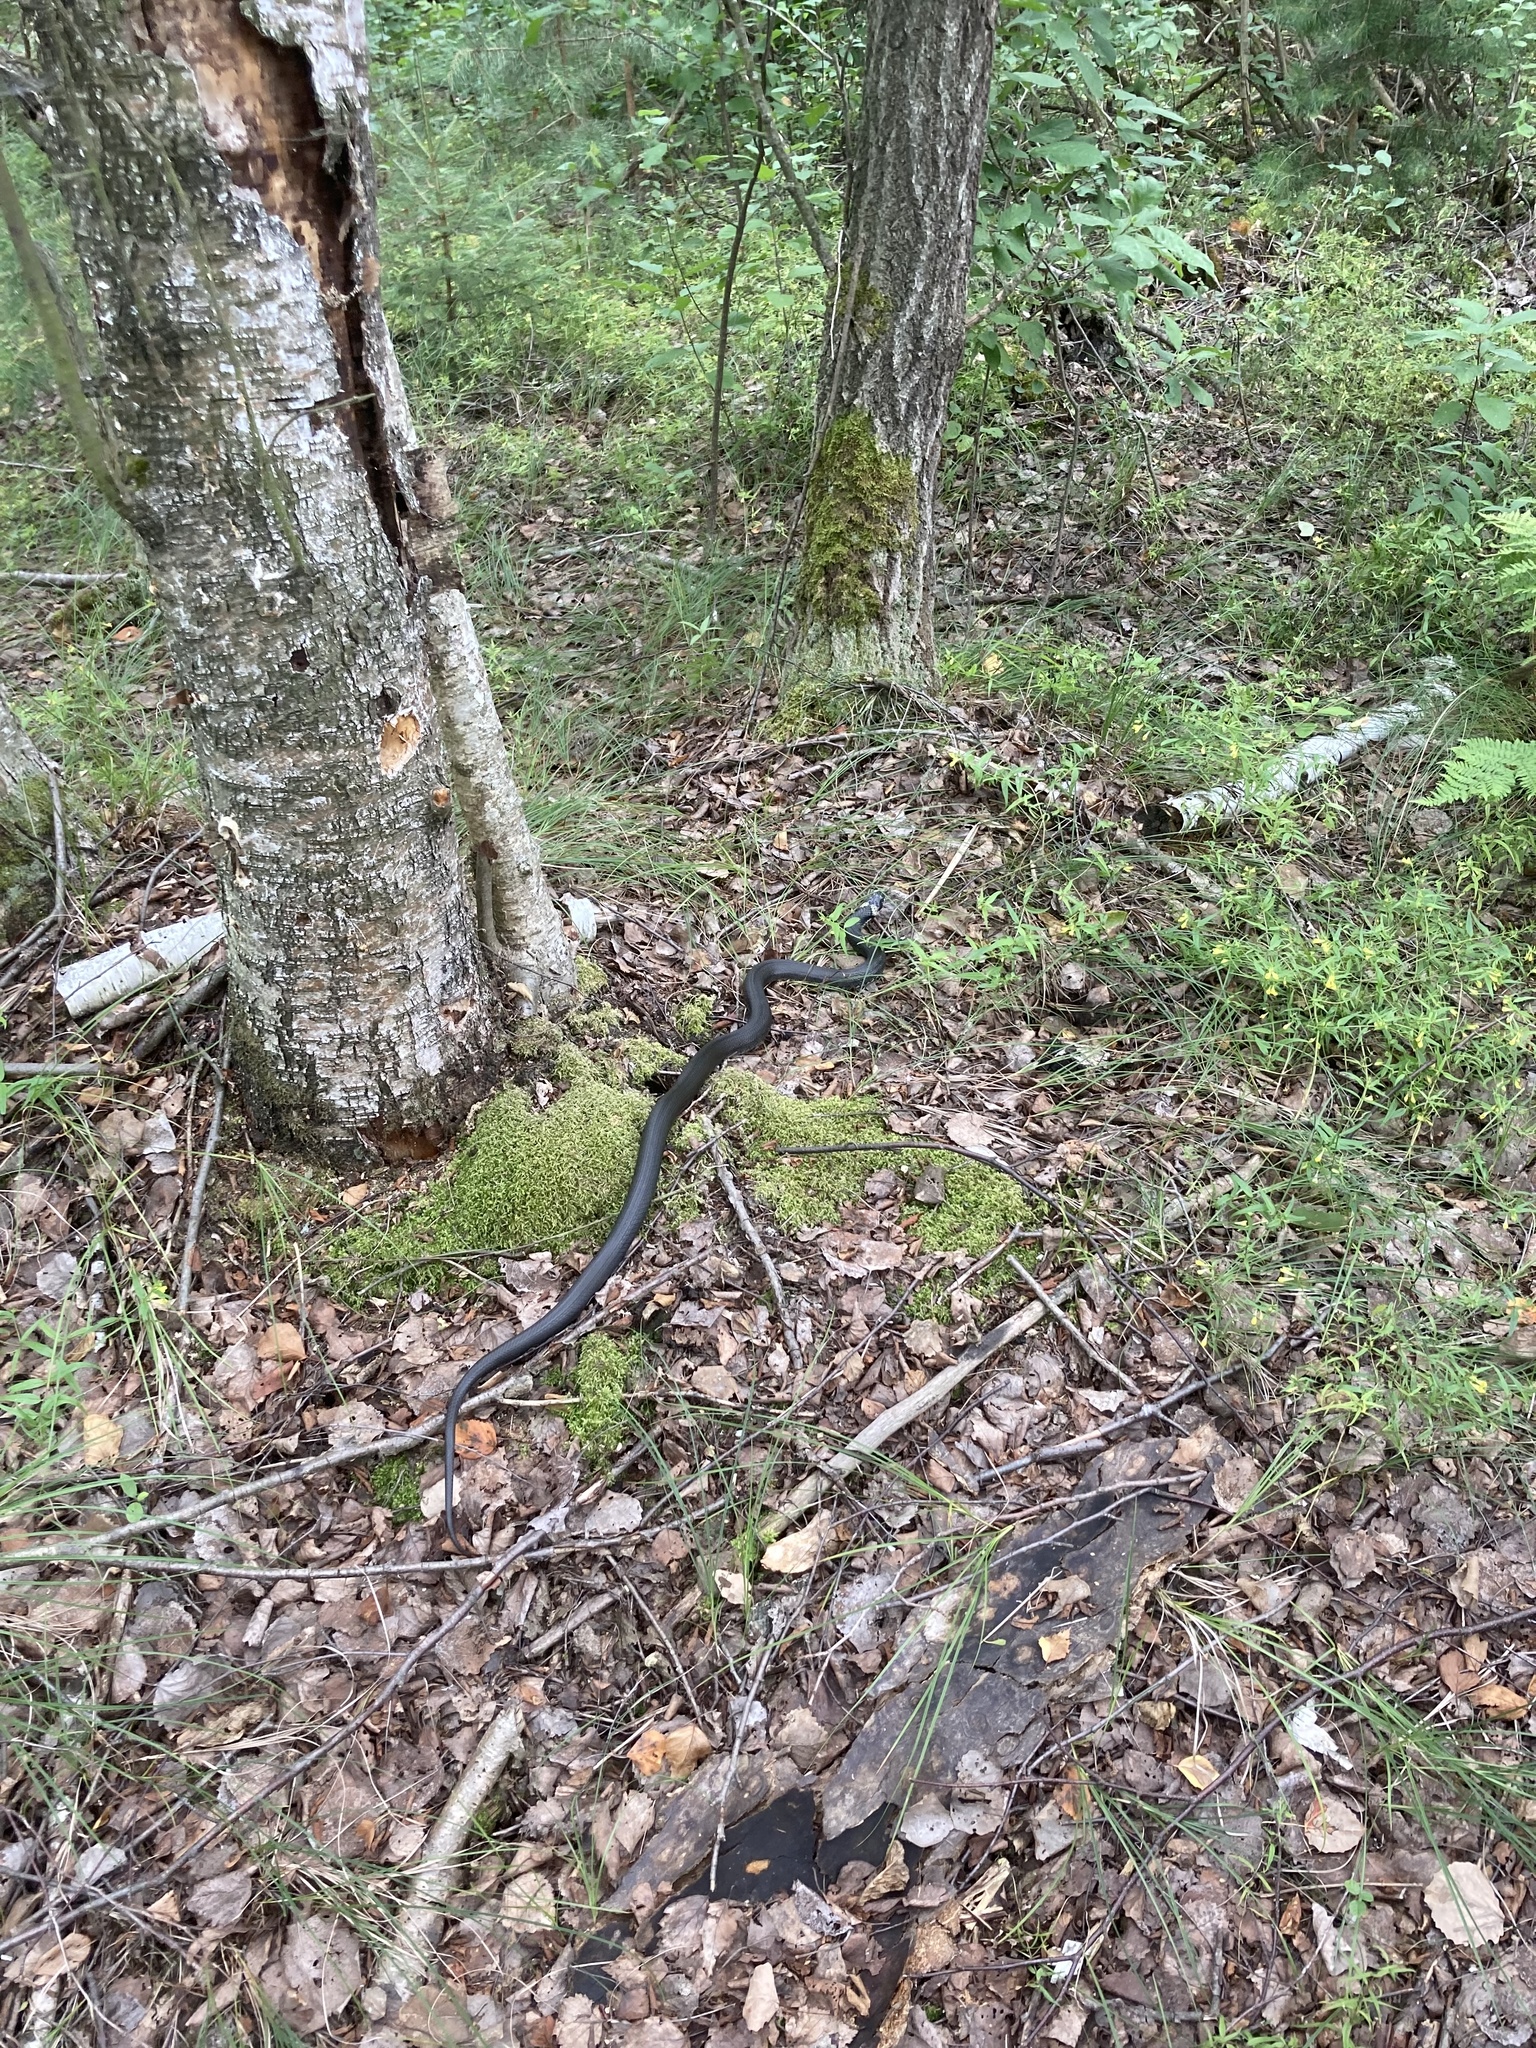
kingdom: Animalia
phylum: Chordata
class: Squamata
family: Colubridae
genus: Natrix
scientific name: Natrix natrix
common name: Grass snake
